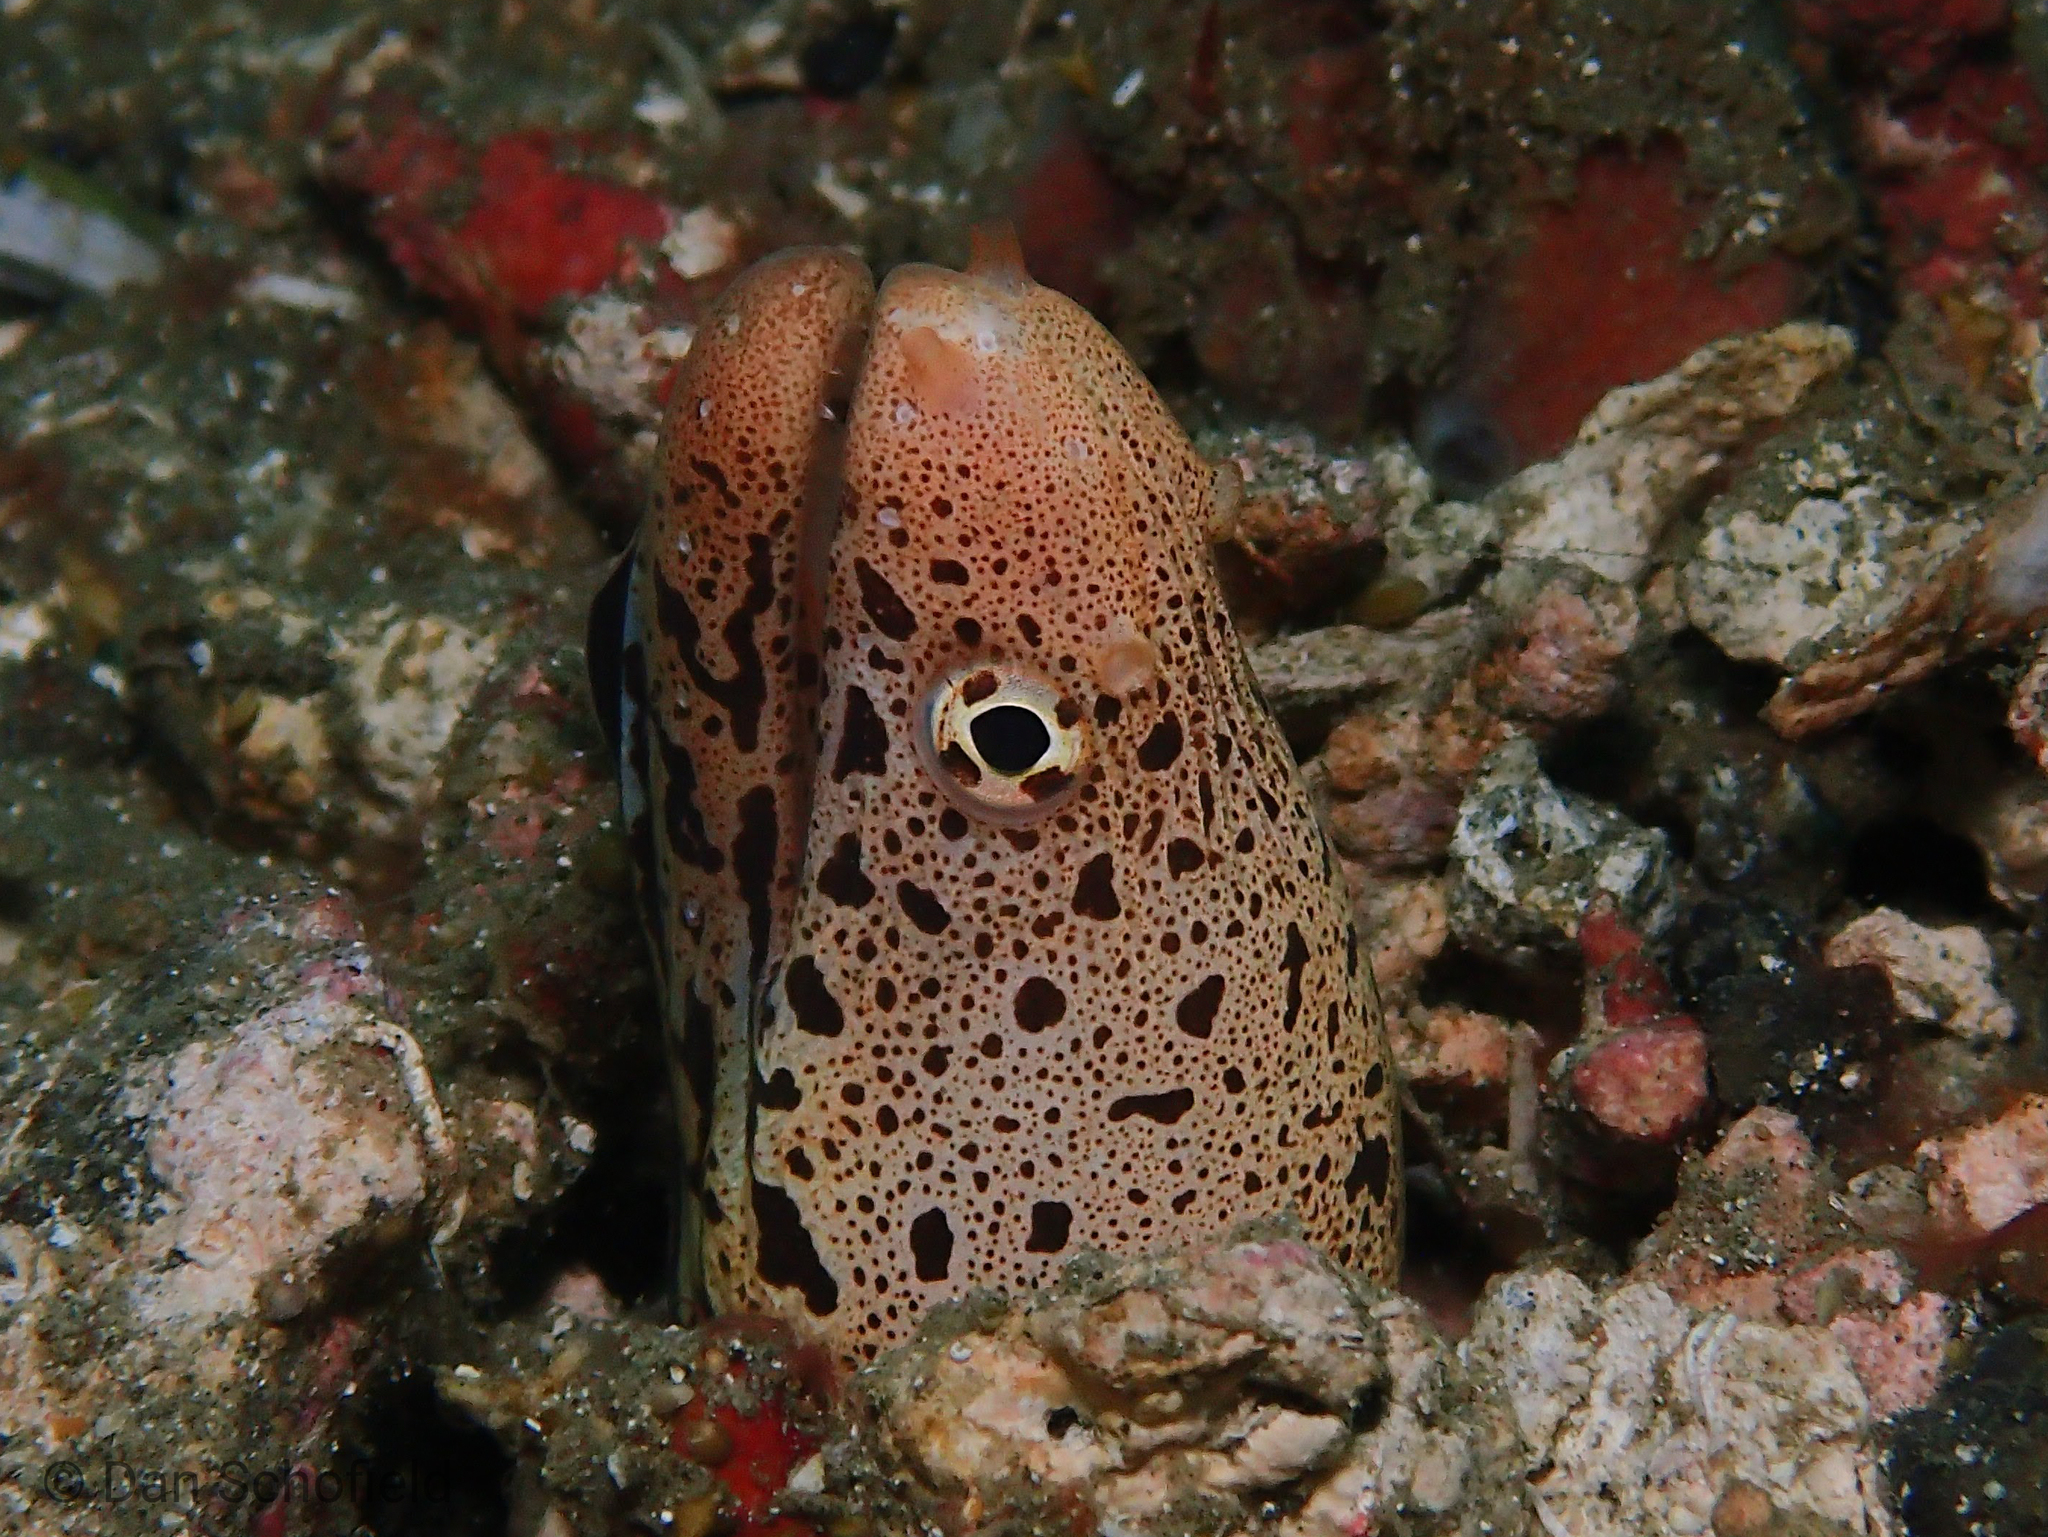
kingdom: Animalia
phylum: Chordata
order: Anguilliformes
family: Muraenidae
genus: Gymnothorax
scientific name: Gymnothorax chlamydatus
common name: Banded mud moray
